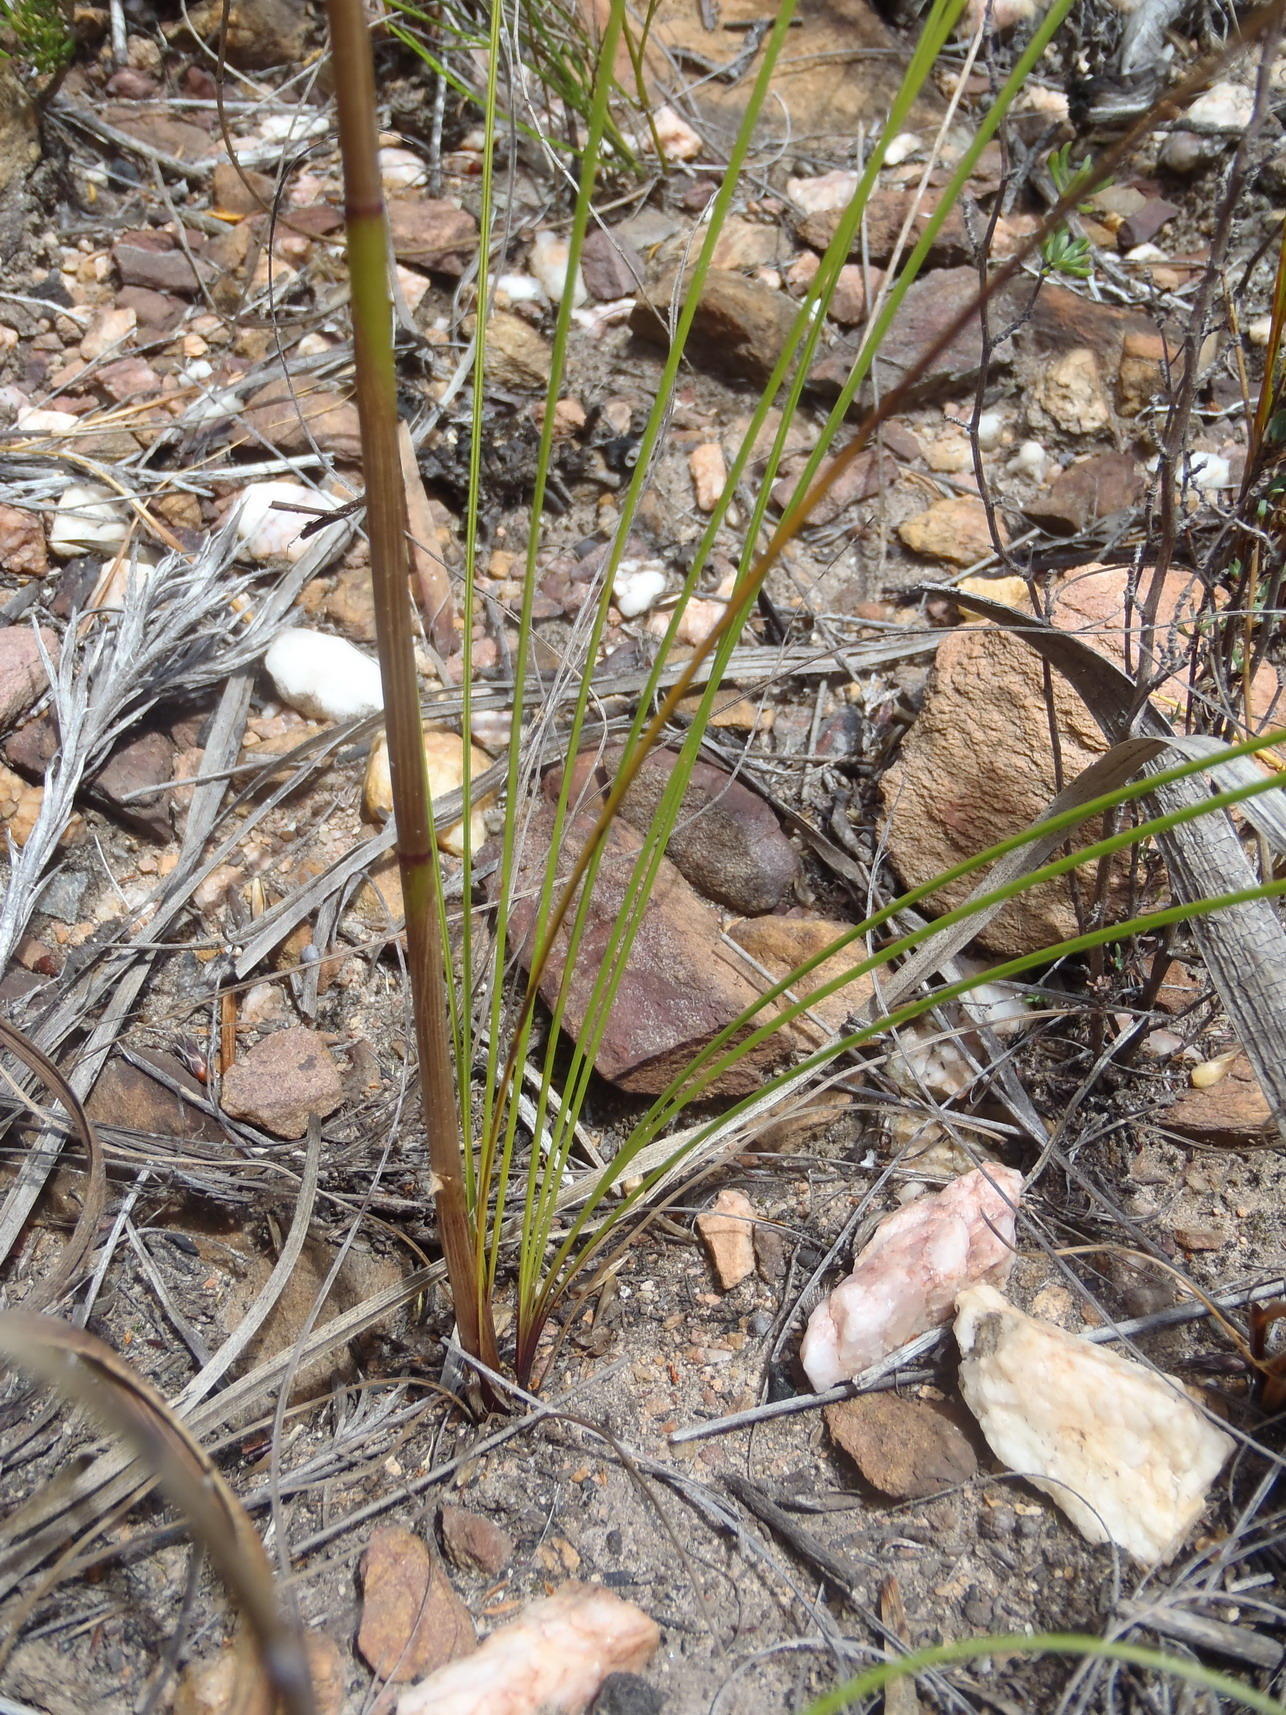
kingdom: Plantae
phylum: Tracheophyta
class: Liliopsida
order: Asparagales
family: Orchidaceae
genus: Disa
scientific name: Disa schlechteriana
